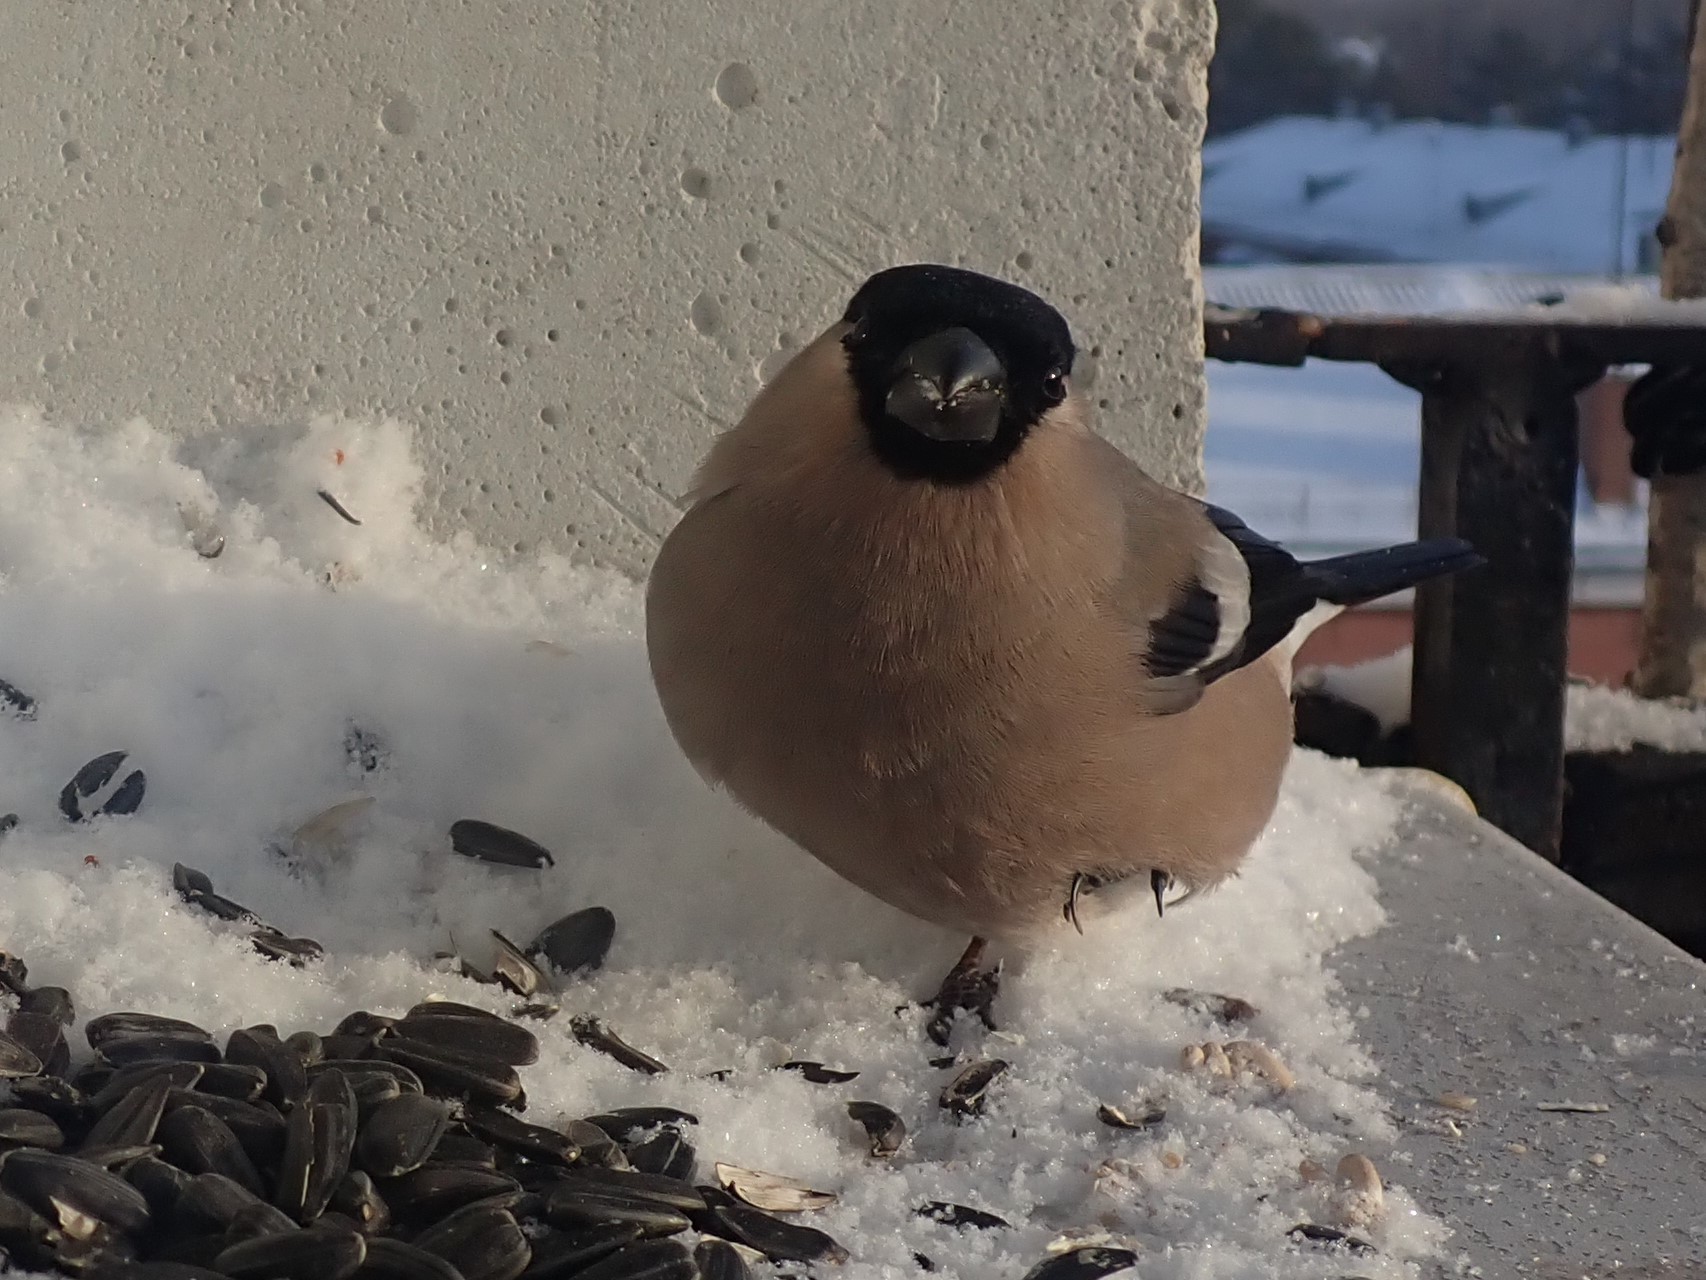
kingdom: Animalia
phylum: Chordata
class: Aves
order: Passeriformes
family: Fringillidae
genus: Pyrrhula
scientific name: Pyrrhula pyrrhula
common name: Eurasian bullfinch
